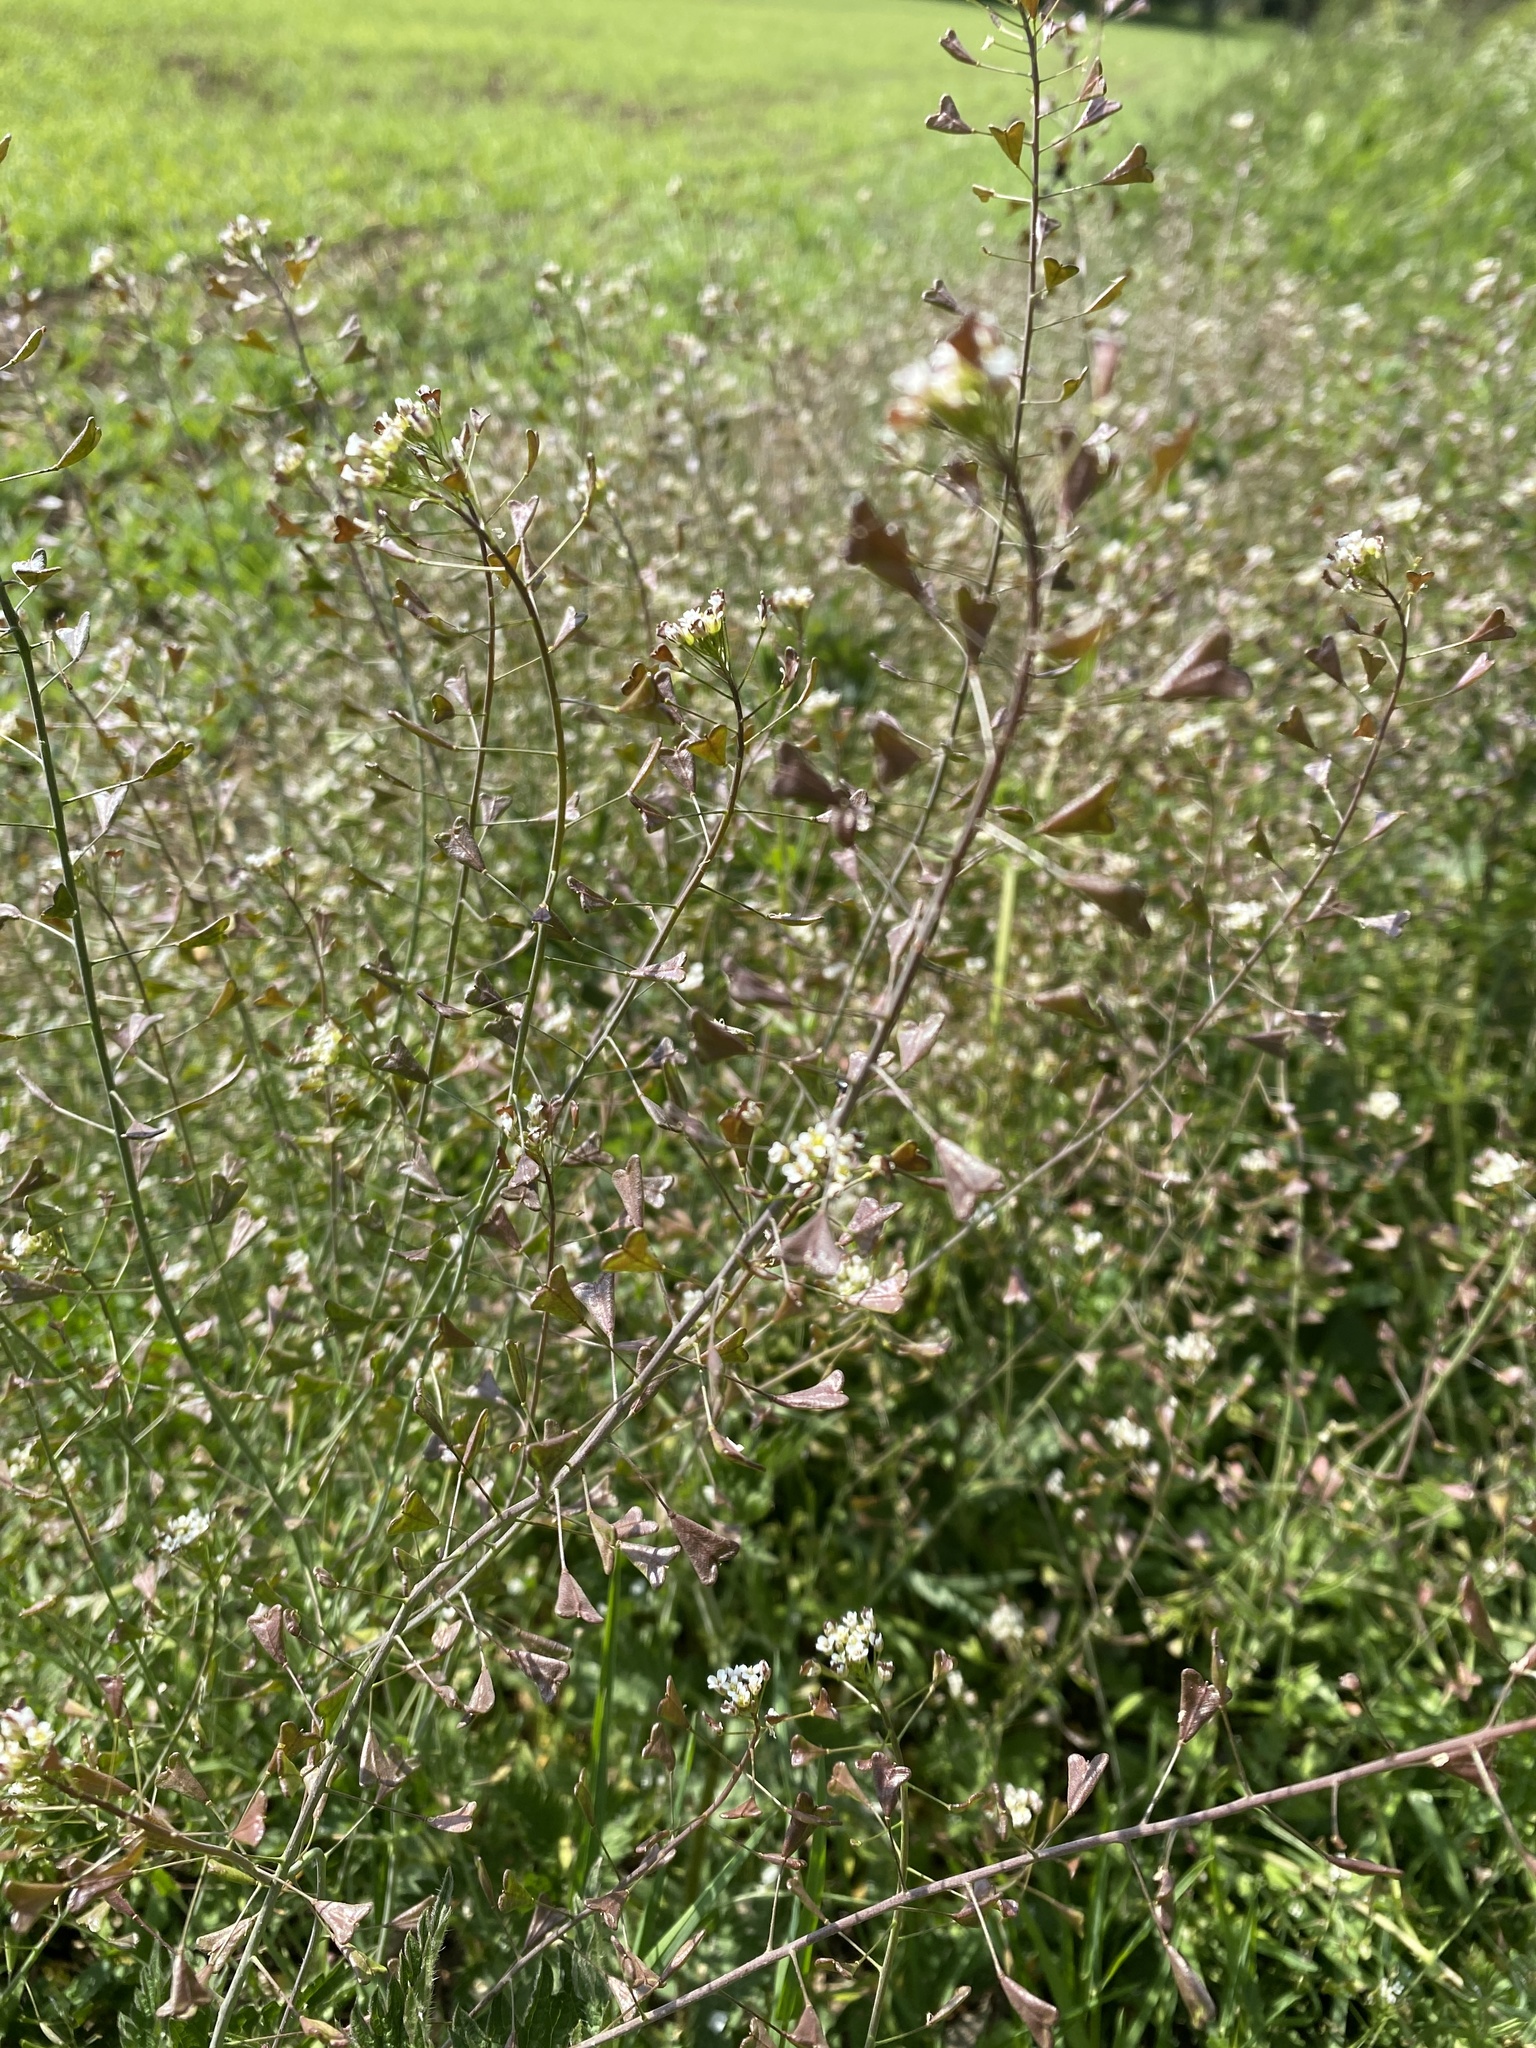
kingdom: Plantae
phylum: Tracheophyta
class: Magnoliopsida
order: Brassicales
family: Brassicaceae
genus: Capsella
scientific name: Capsella bursa-pastoris
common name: Shepherd's purse
